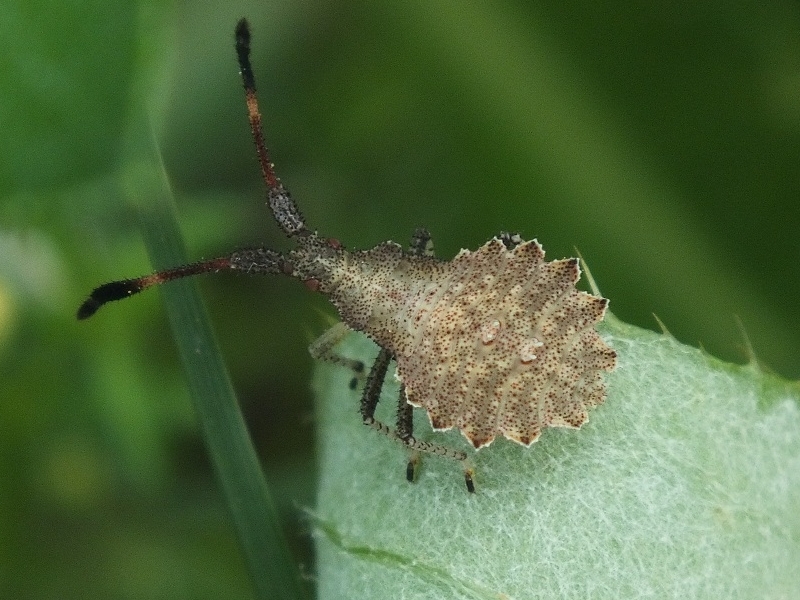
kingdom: Animalia
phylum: Arthropoda
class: Insecta
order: Hemiptera
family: Coreidae
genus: Enoplops
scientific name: Enoplops scapha
